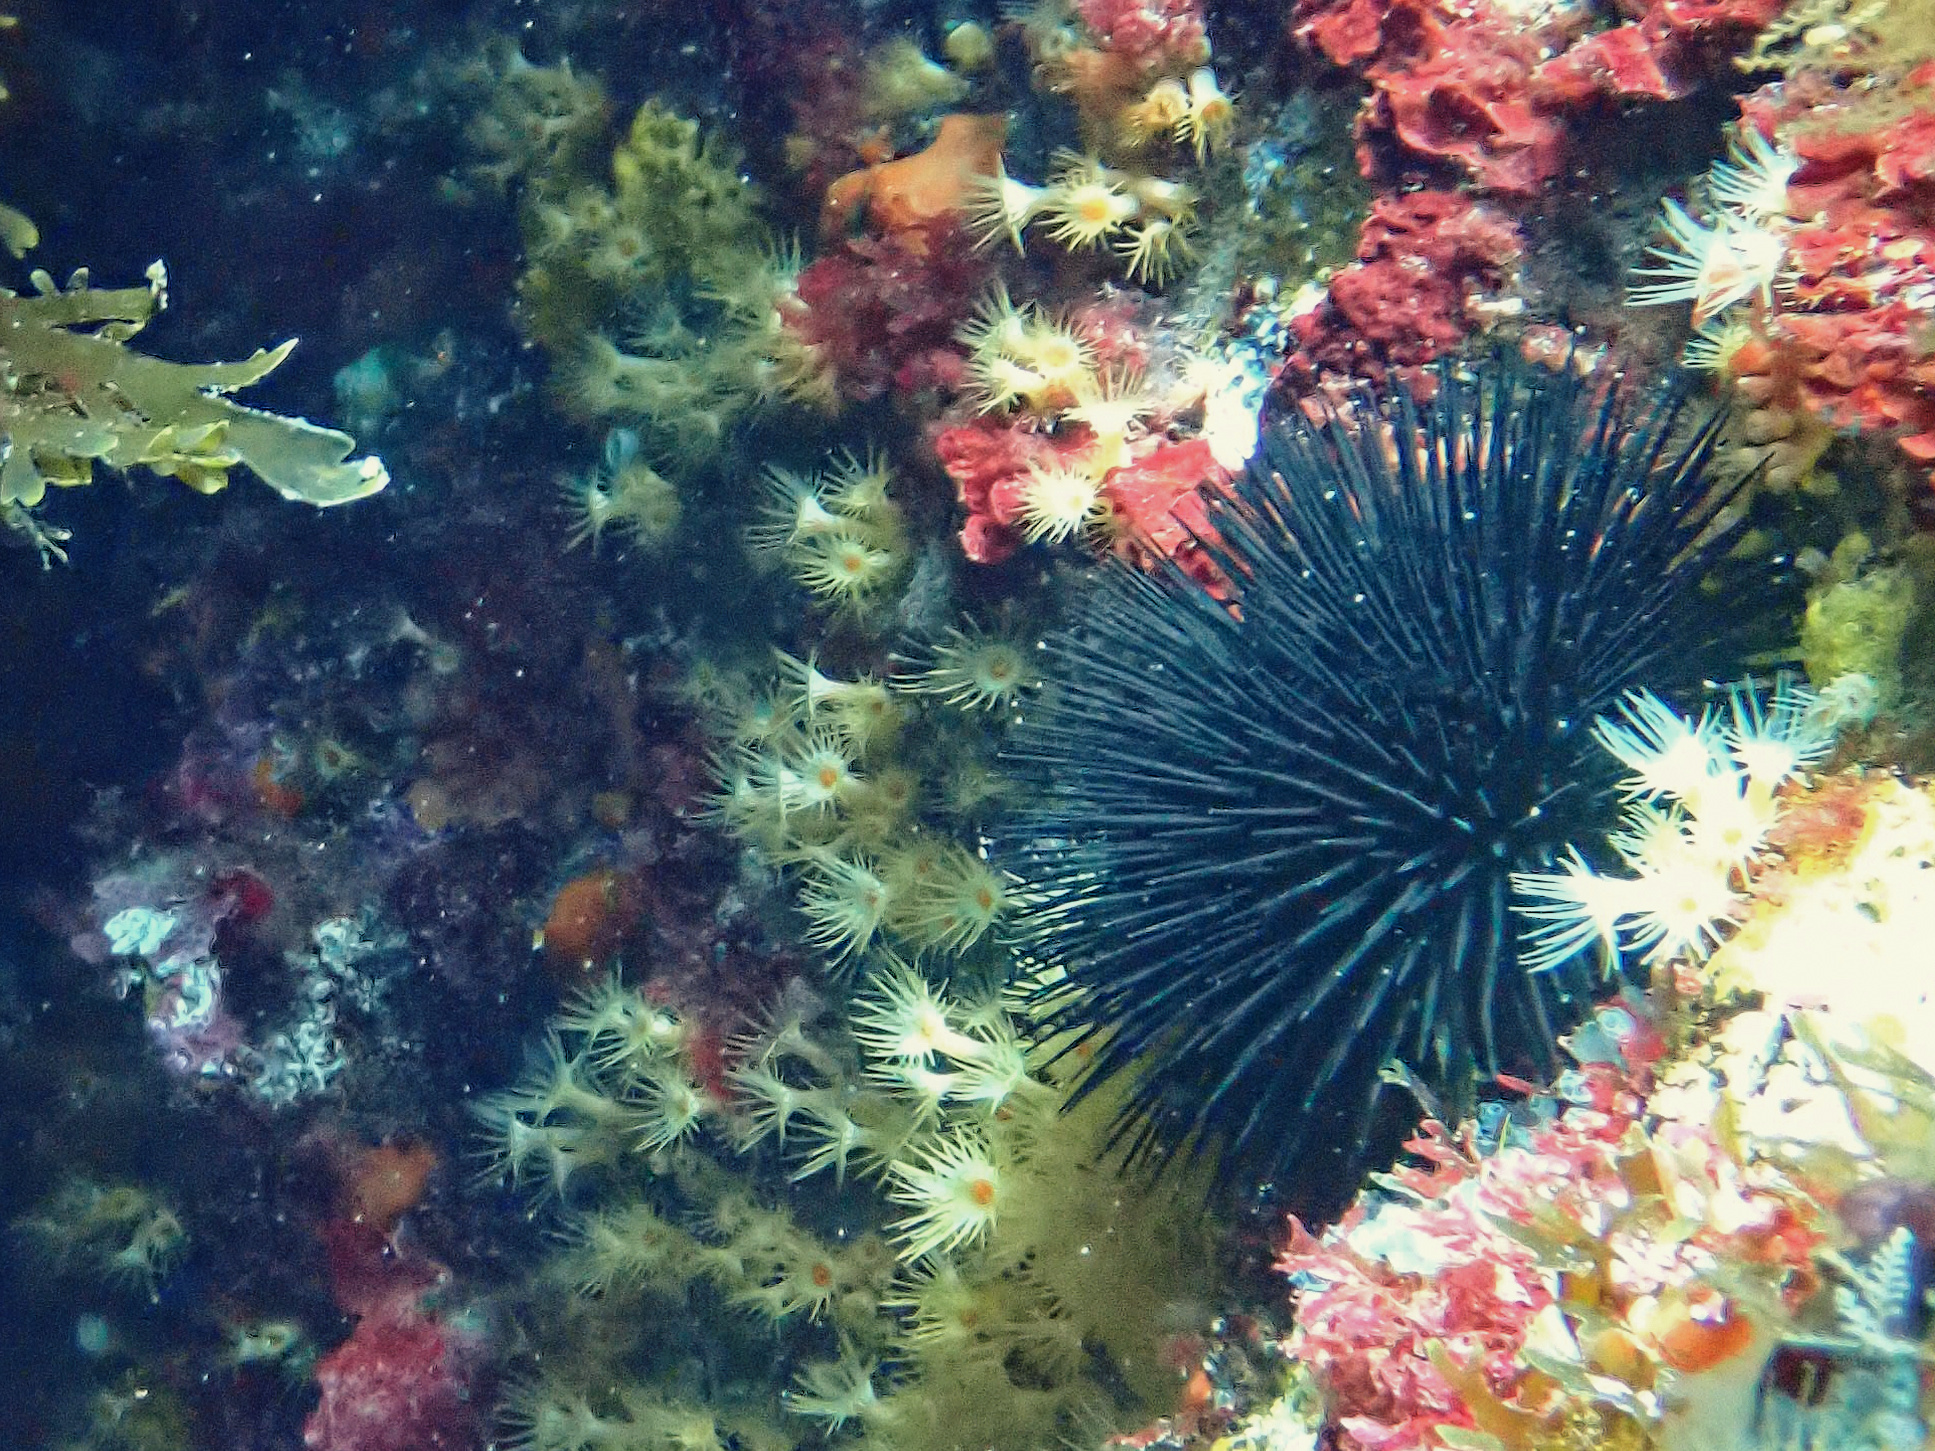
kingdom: Animalia
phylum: Echinodermata
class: Echinoidea
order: Arbacioida
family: Arbaciidae
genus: Arbacia
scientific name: Arbacia lixula
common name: Black sea urchin
